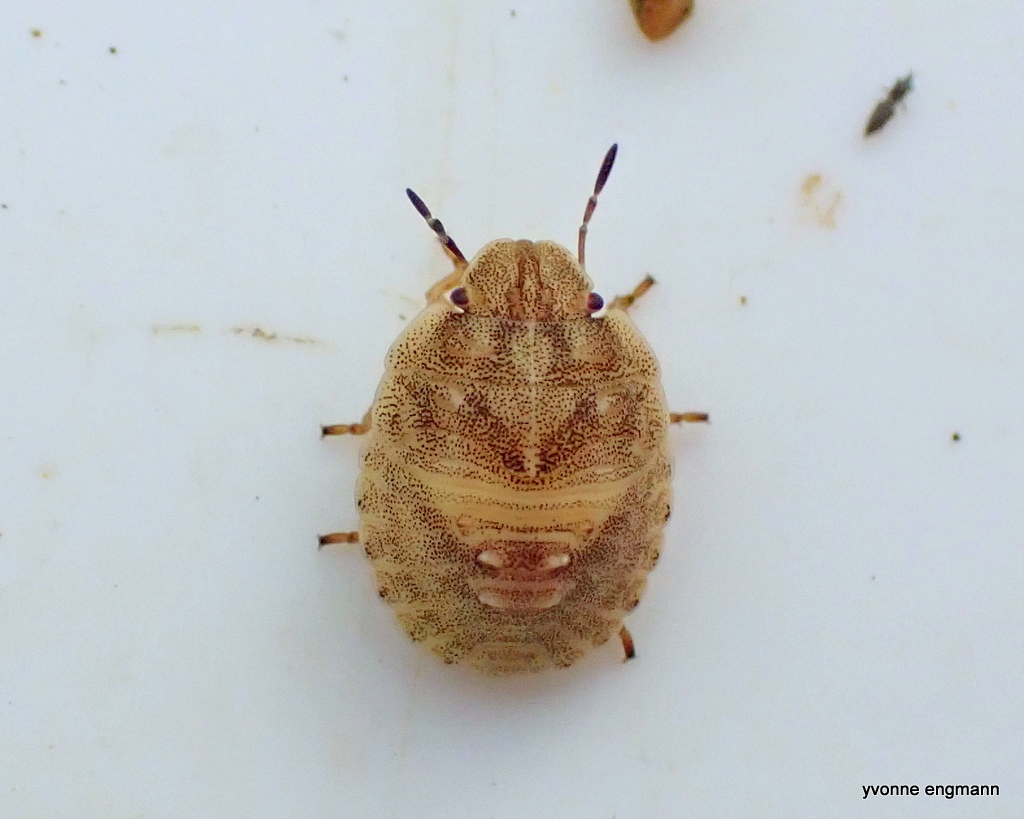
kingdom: Animalia
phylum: Arthropoda
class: Insecta
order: Hemiptera
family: Scutelleridae
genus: Eurygaster
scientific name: Eurygaster testudinaria
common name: Tortoise bug
